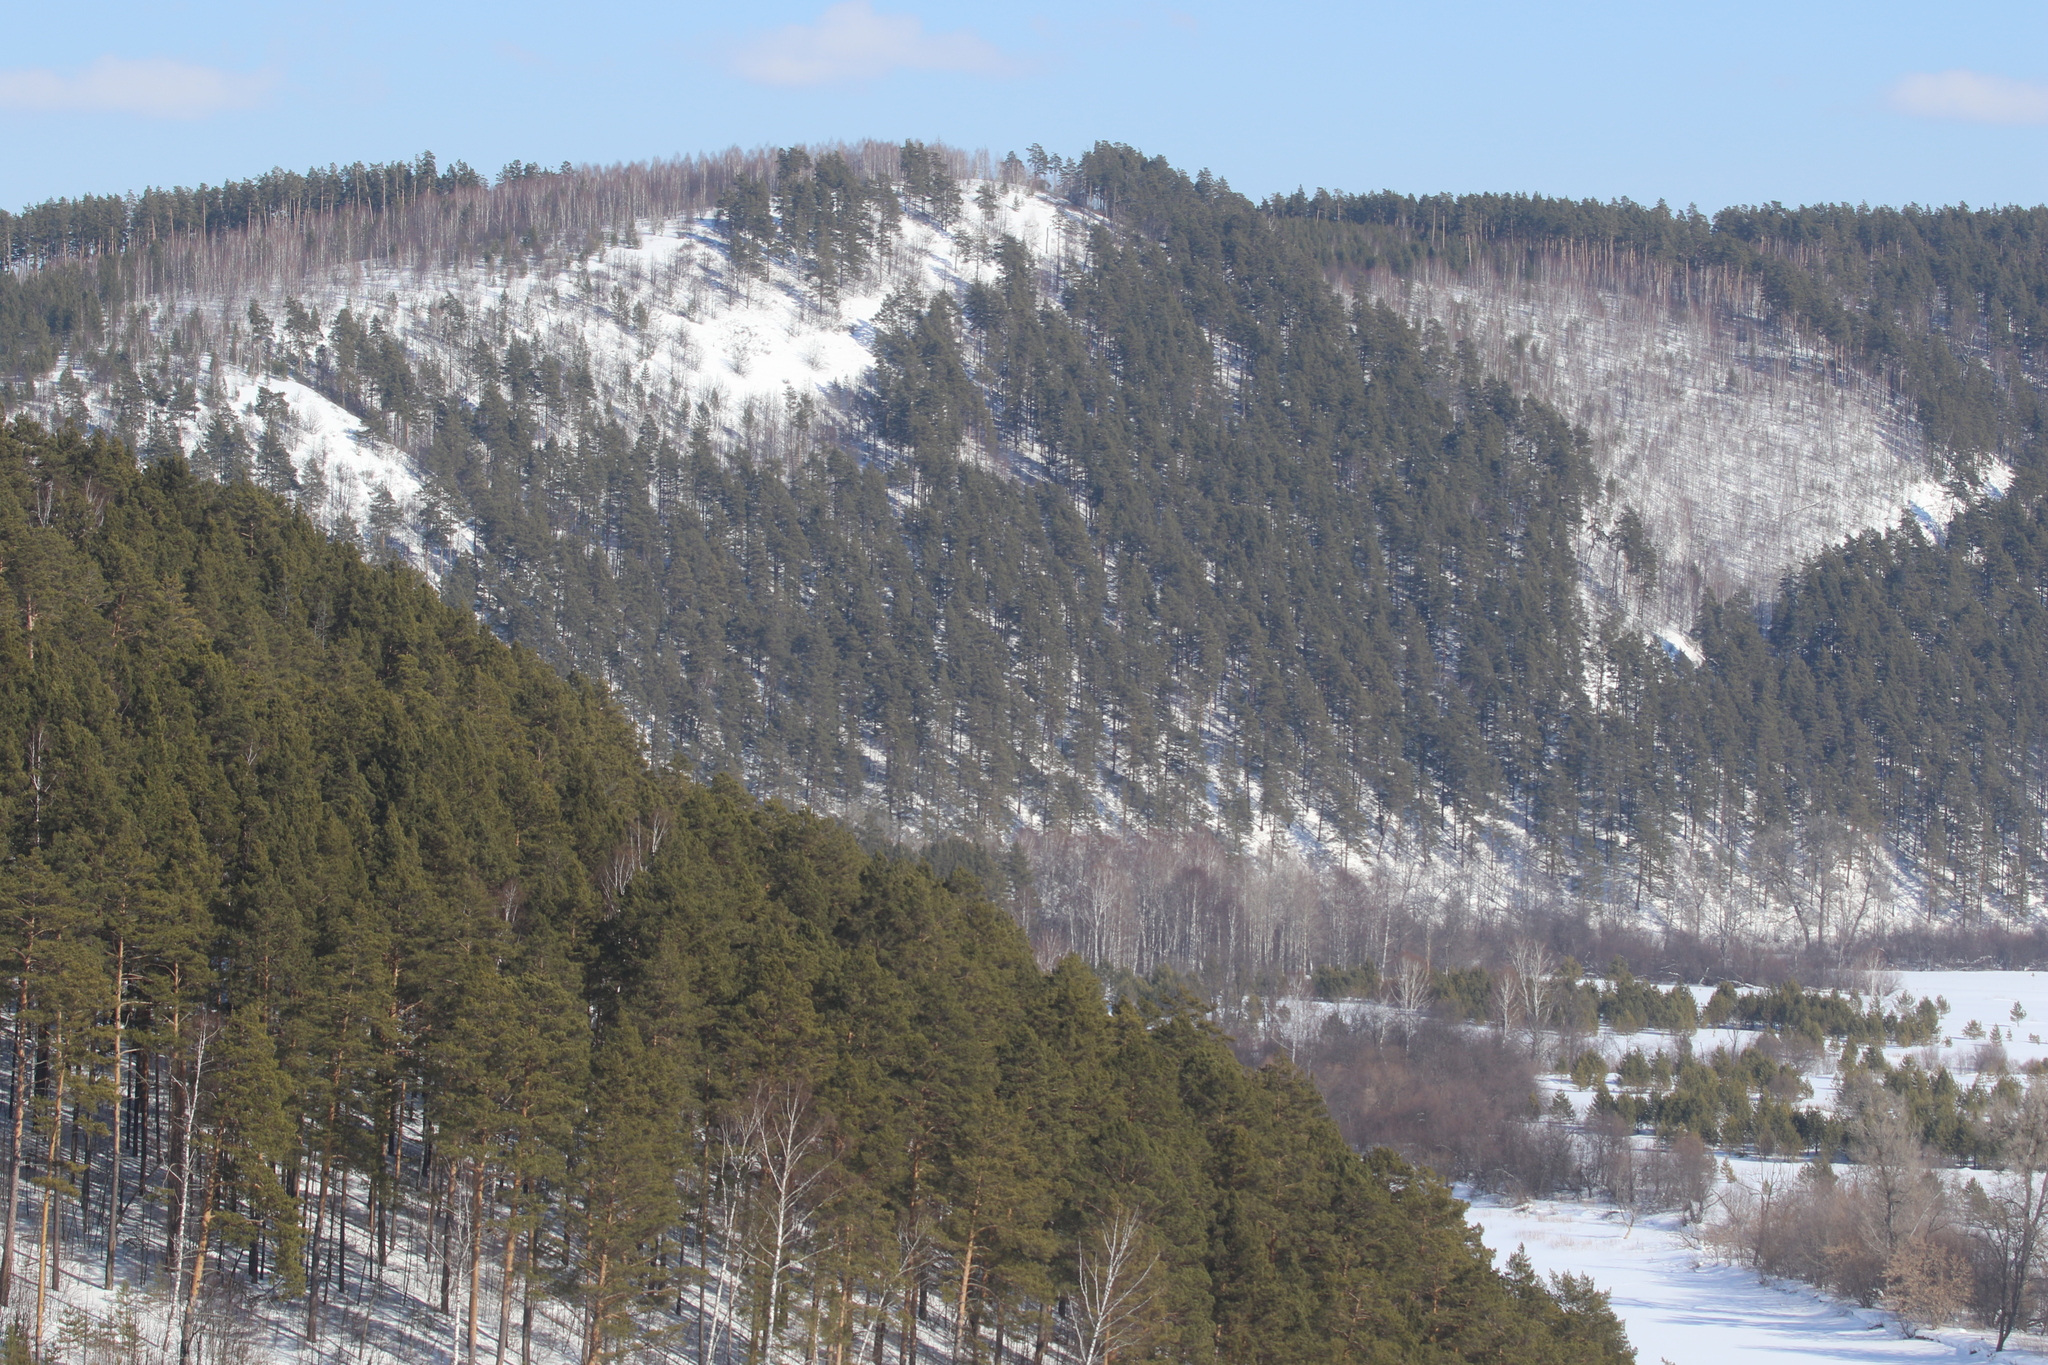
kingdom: Plantae
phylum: Tracheophyta
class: Pinopsida
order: Pinales
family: Pinaceae
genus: Pinus
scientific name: Pinus sylvestris
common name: Scots pine
